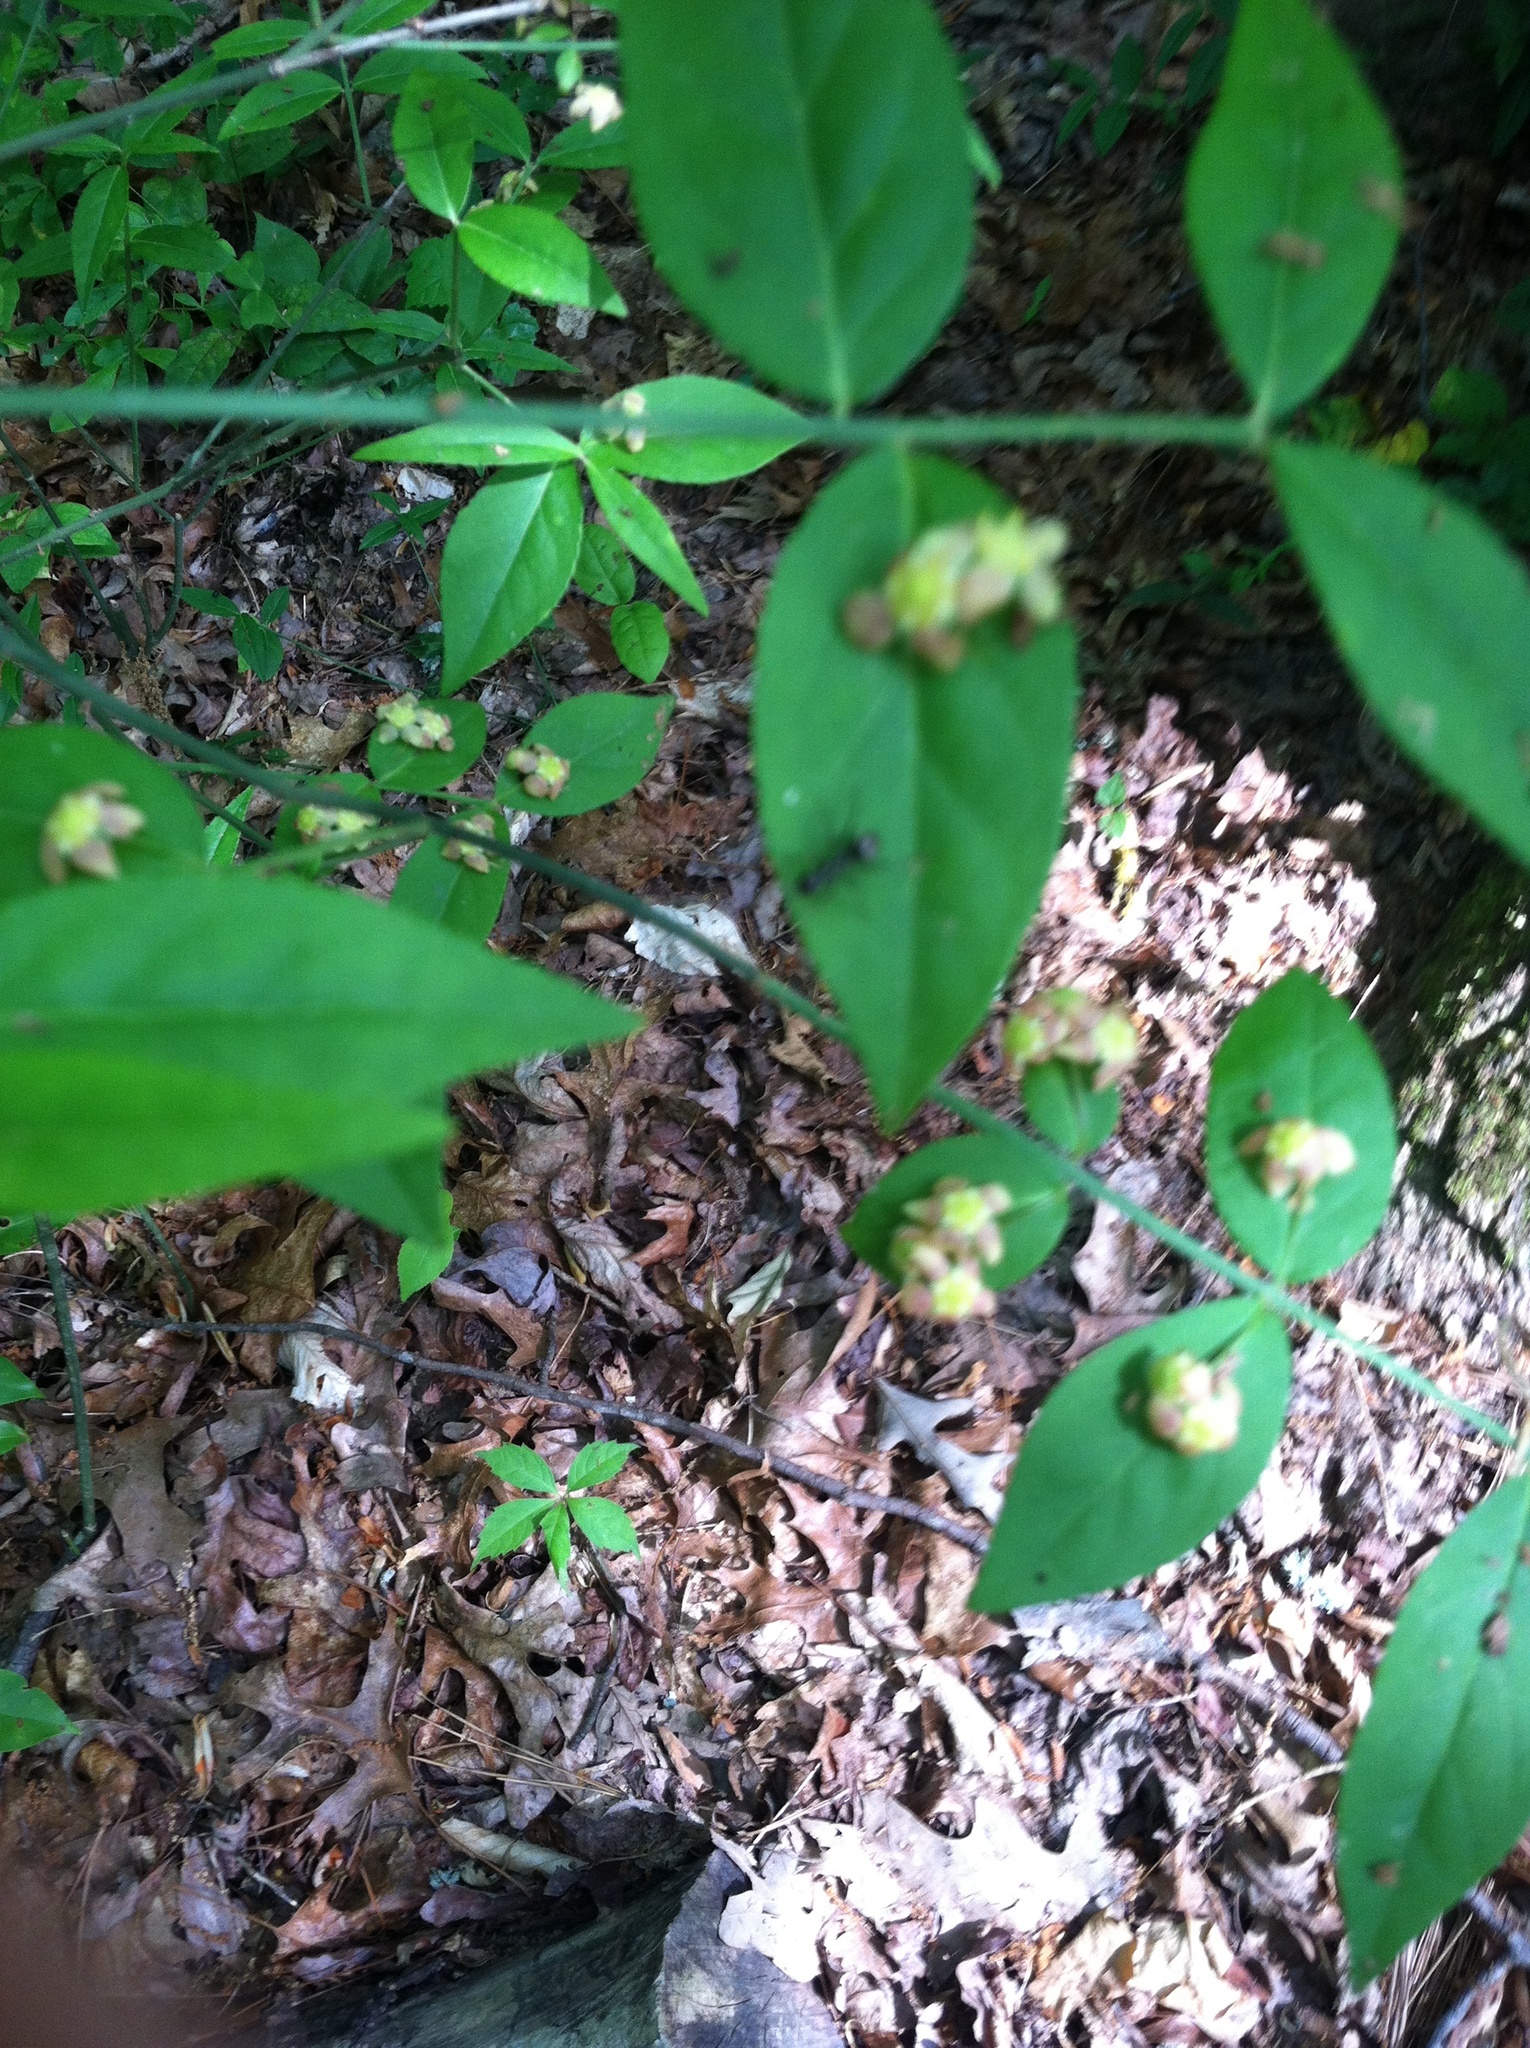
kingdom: Plantae
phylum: Tracheophyta
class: Magnoliopsida
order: Celastrales
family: Celastraceae
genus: Euonymus
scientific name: Euonymus americanus
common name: Bursting-heart
